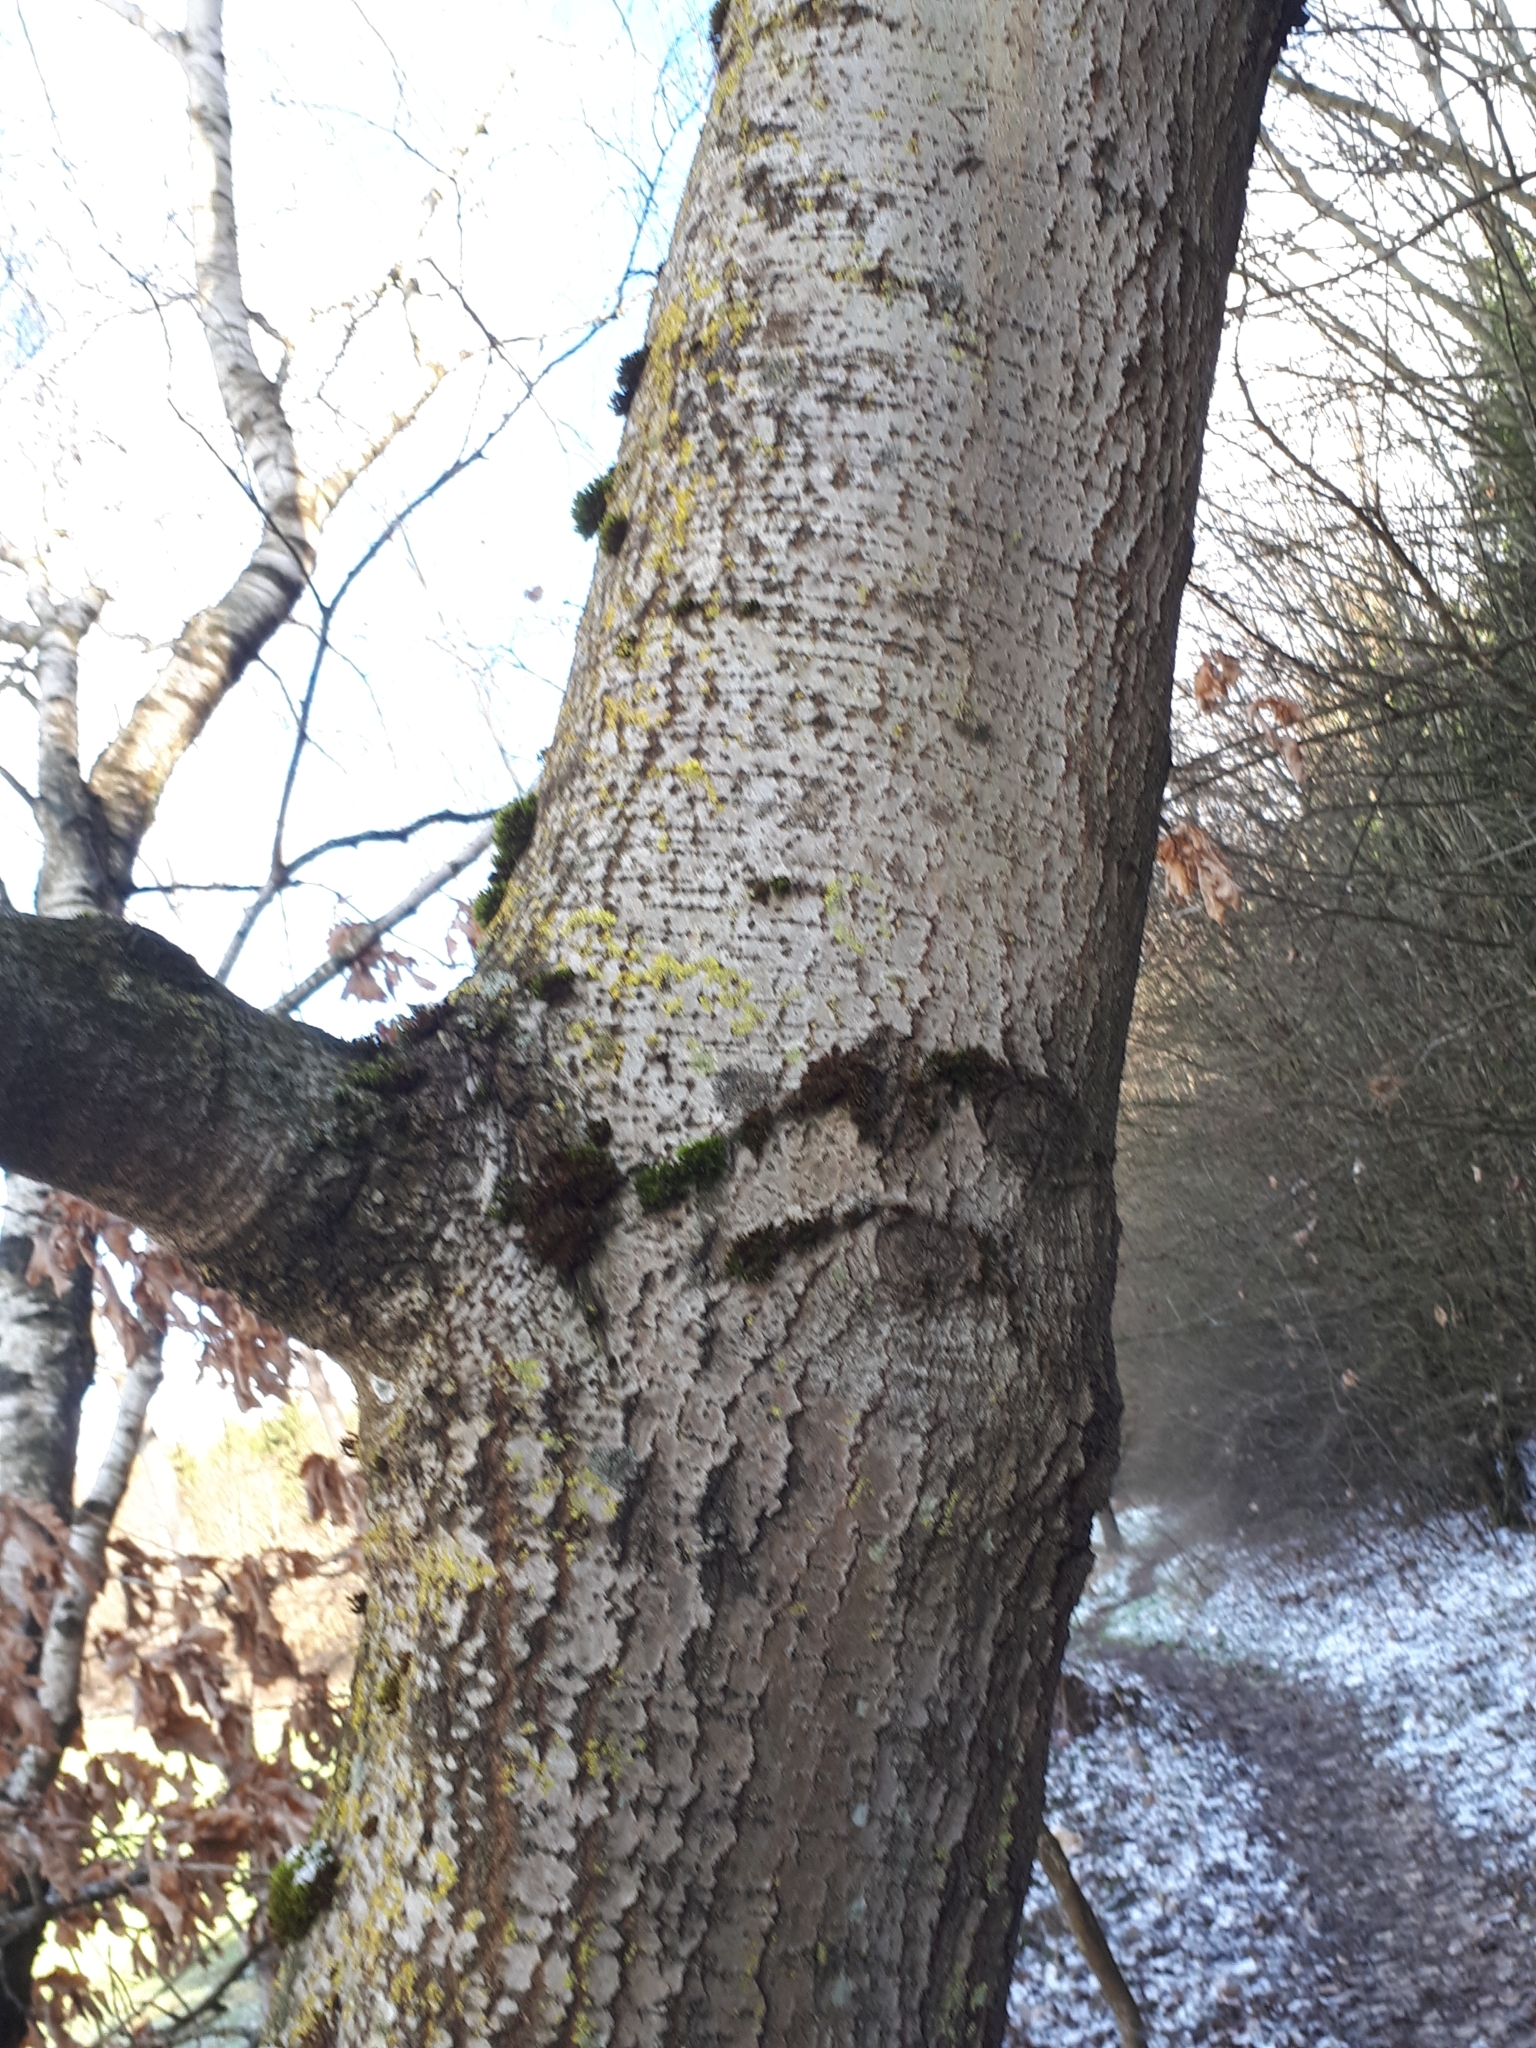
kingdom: Plantae
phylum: Tracheophyta
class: Magnoliopsida
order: Malpighiales
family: Salicaceae
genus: Populus
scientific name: Populus tremula
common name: European aspen
